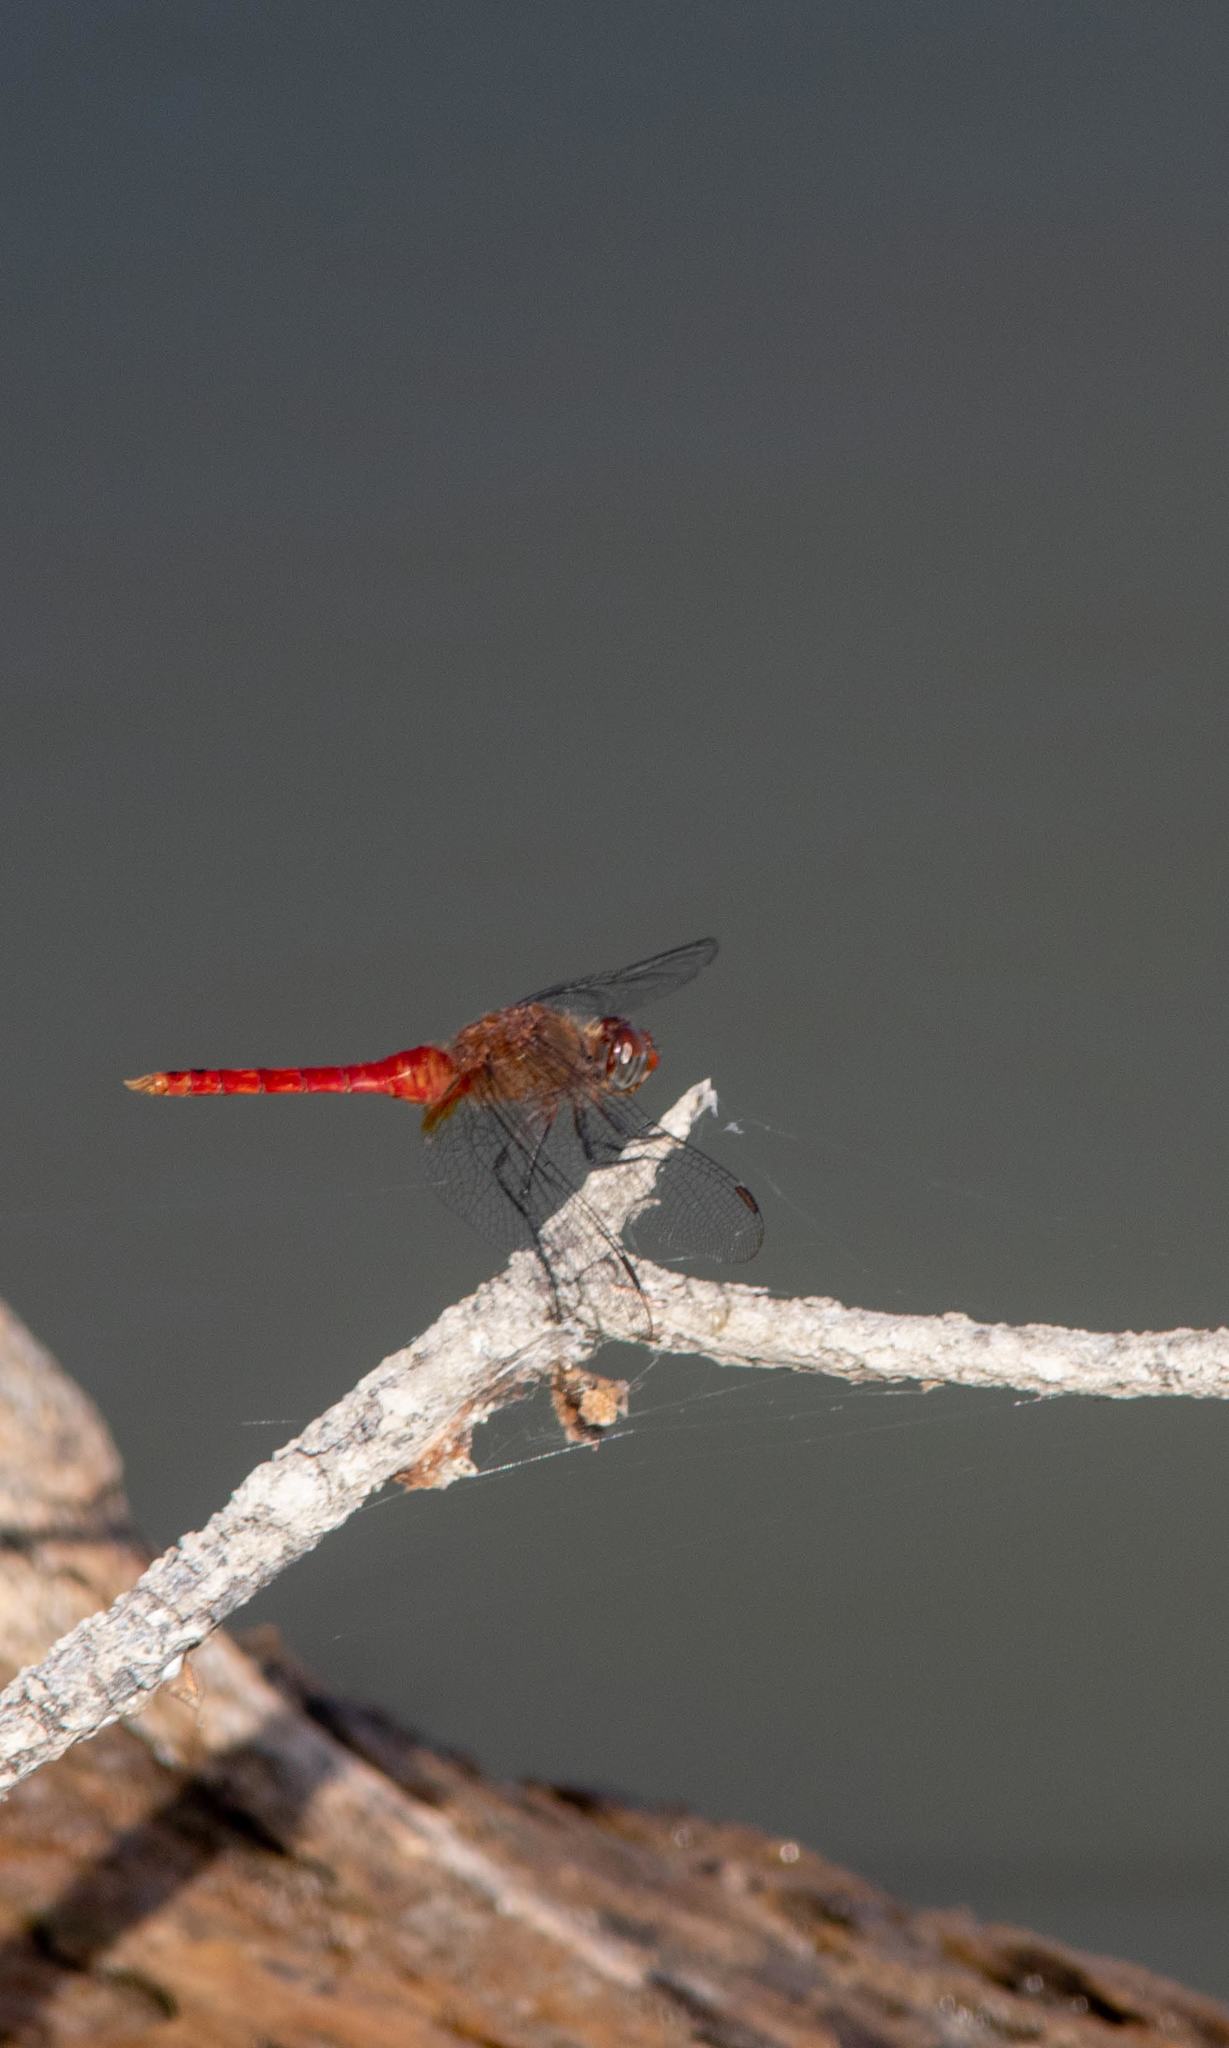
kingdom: Animalia
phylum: Arthropoda
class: Insecta
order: Odonata
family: Libellulidae
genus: Brachymesia
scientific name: Brachymesia furcata
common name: Red-taled pennant
